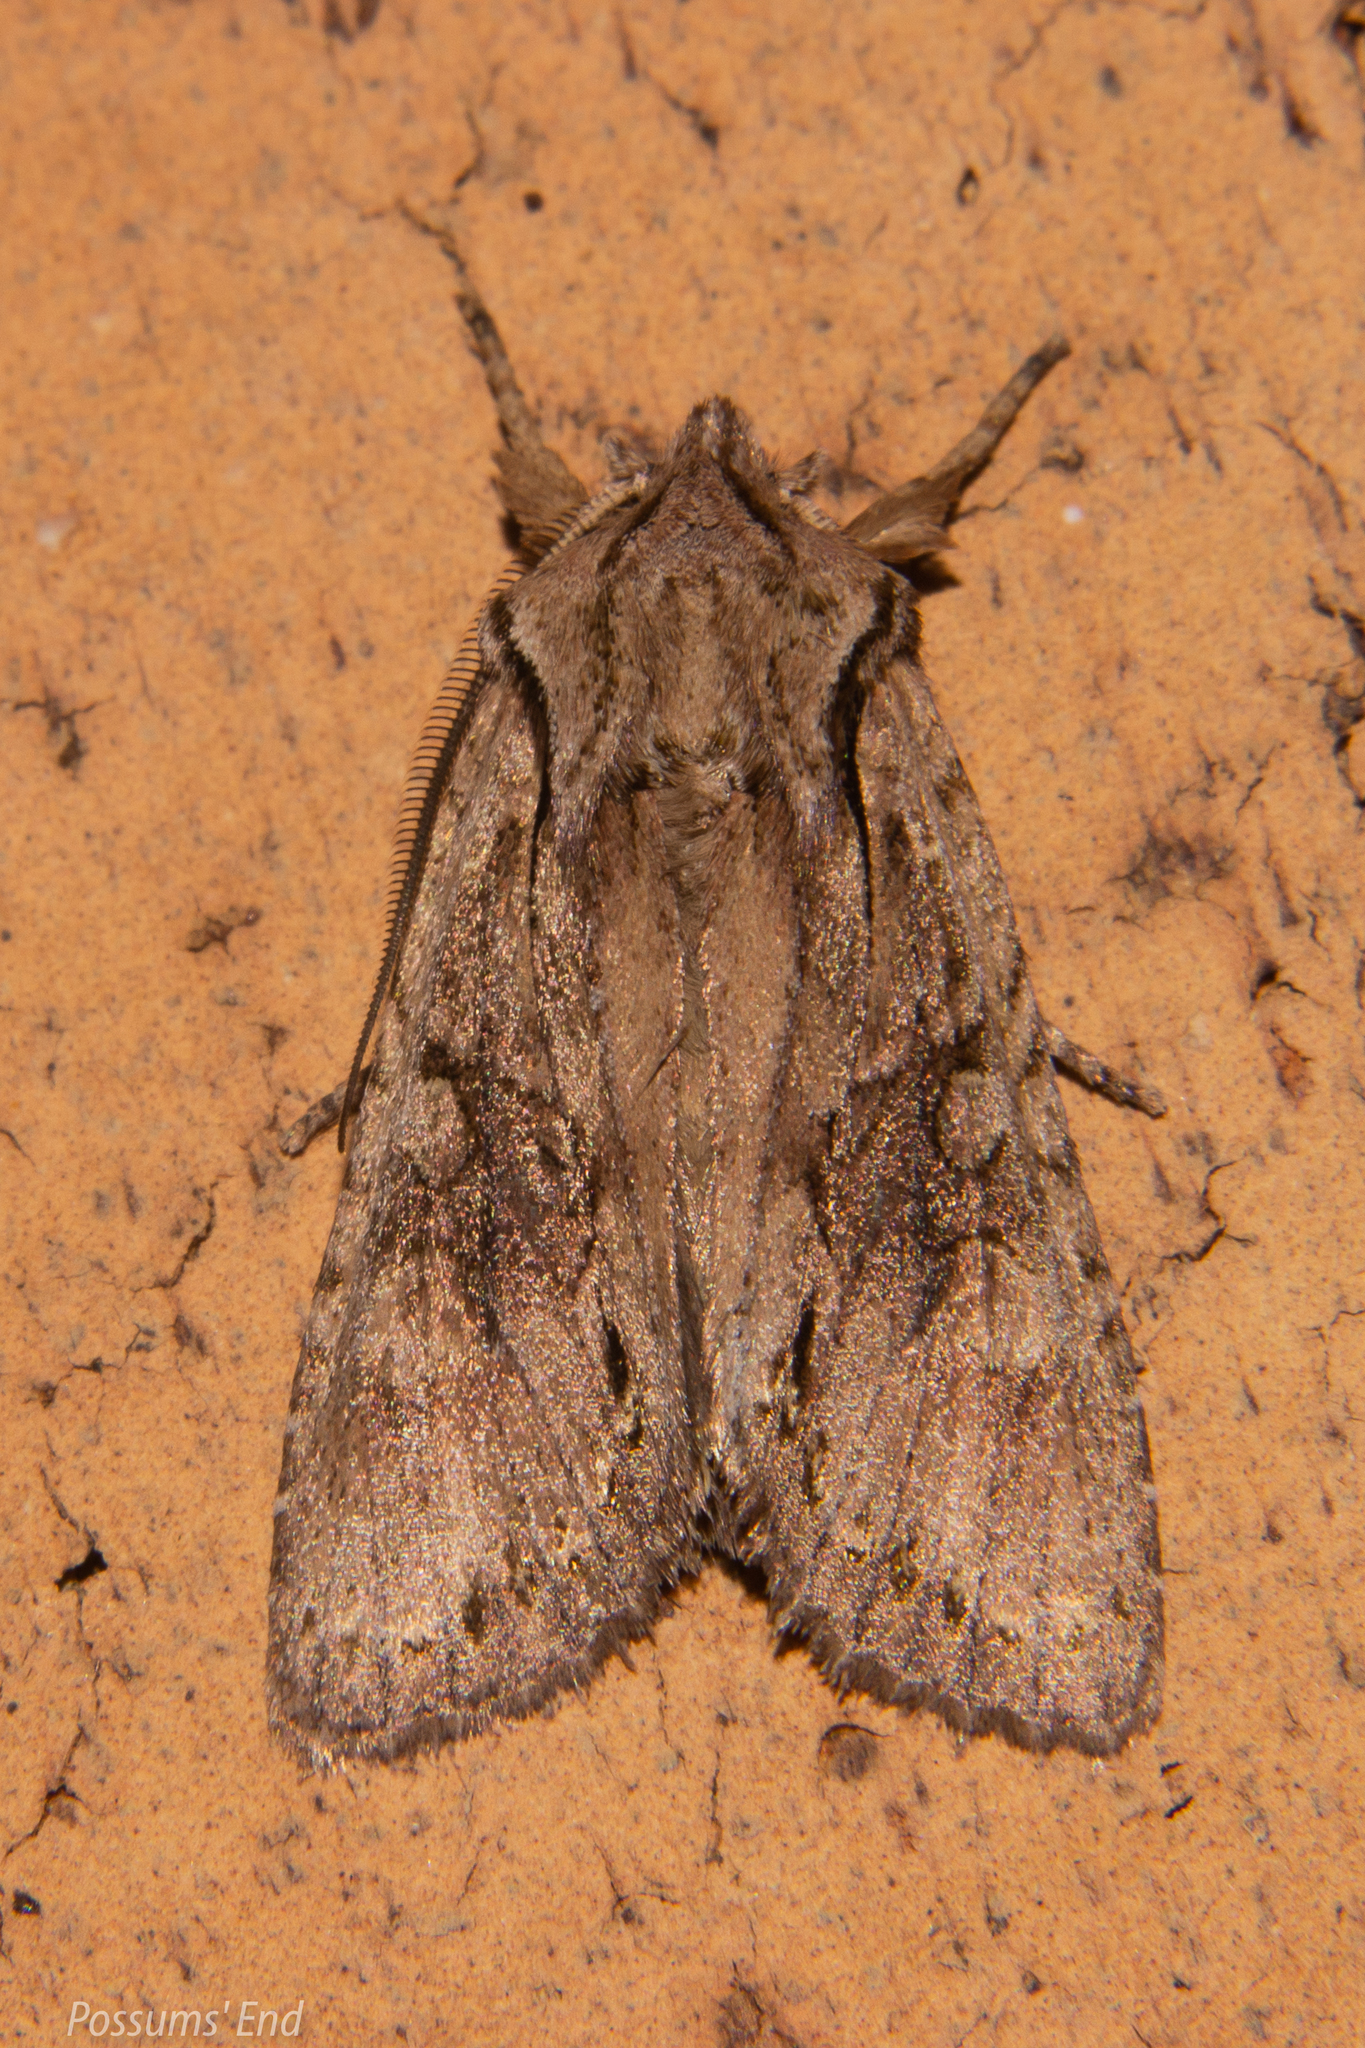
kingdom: Animalia
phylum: Arthropoda
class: Insecta
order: Lepidoptera
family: Noctuidae
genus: Ichneutica
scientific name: Ichneutica
